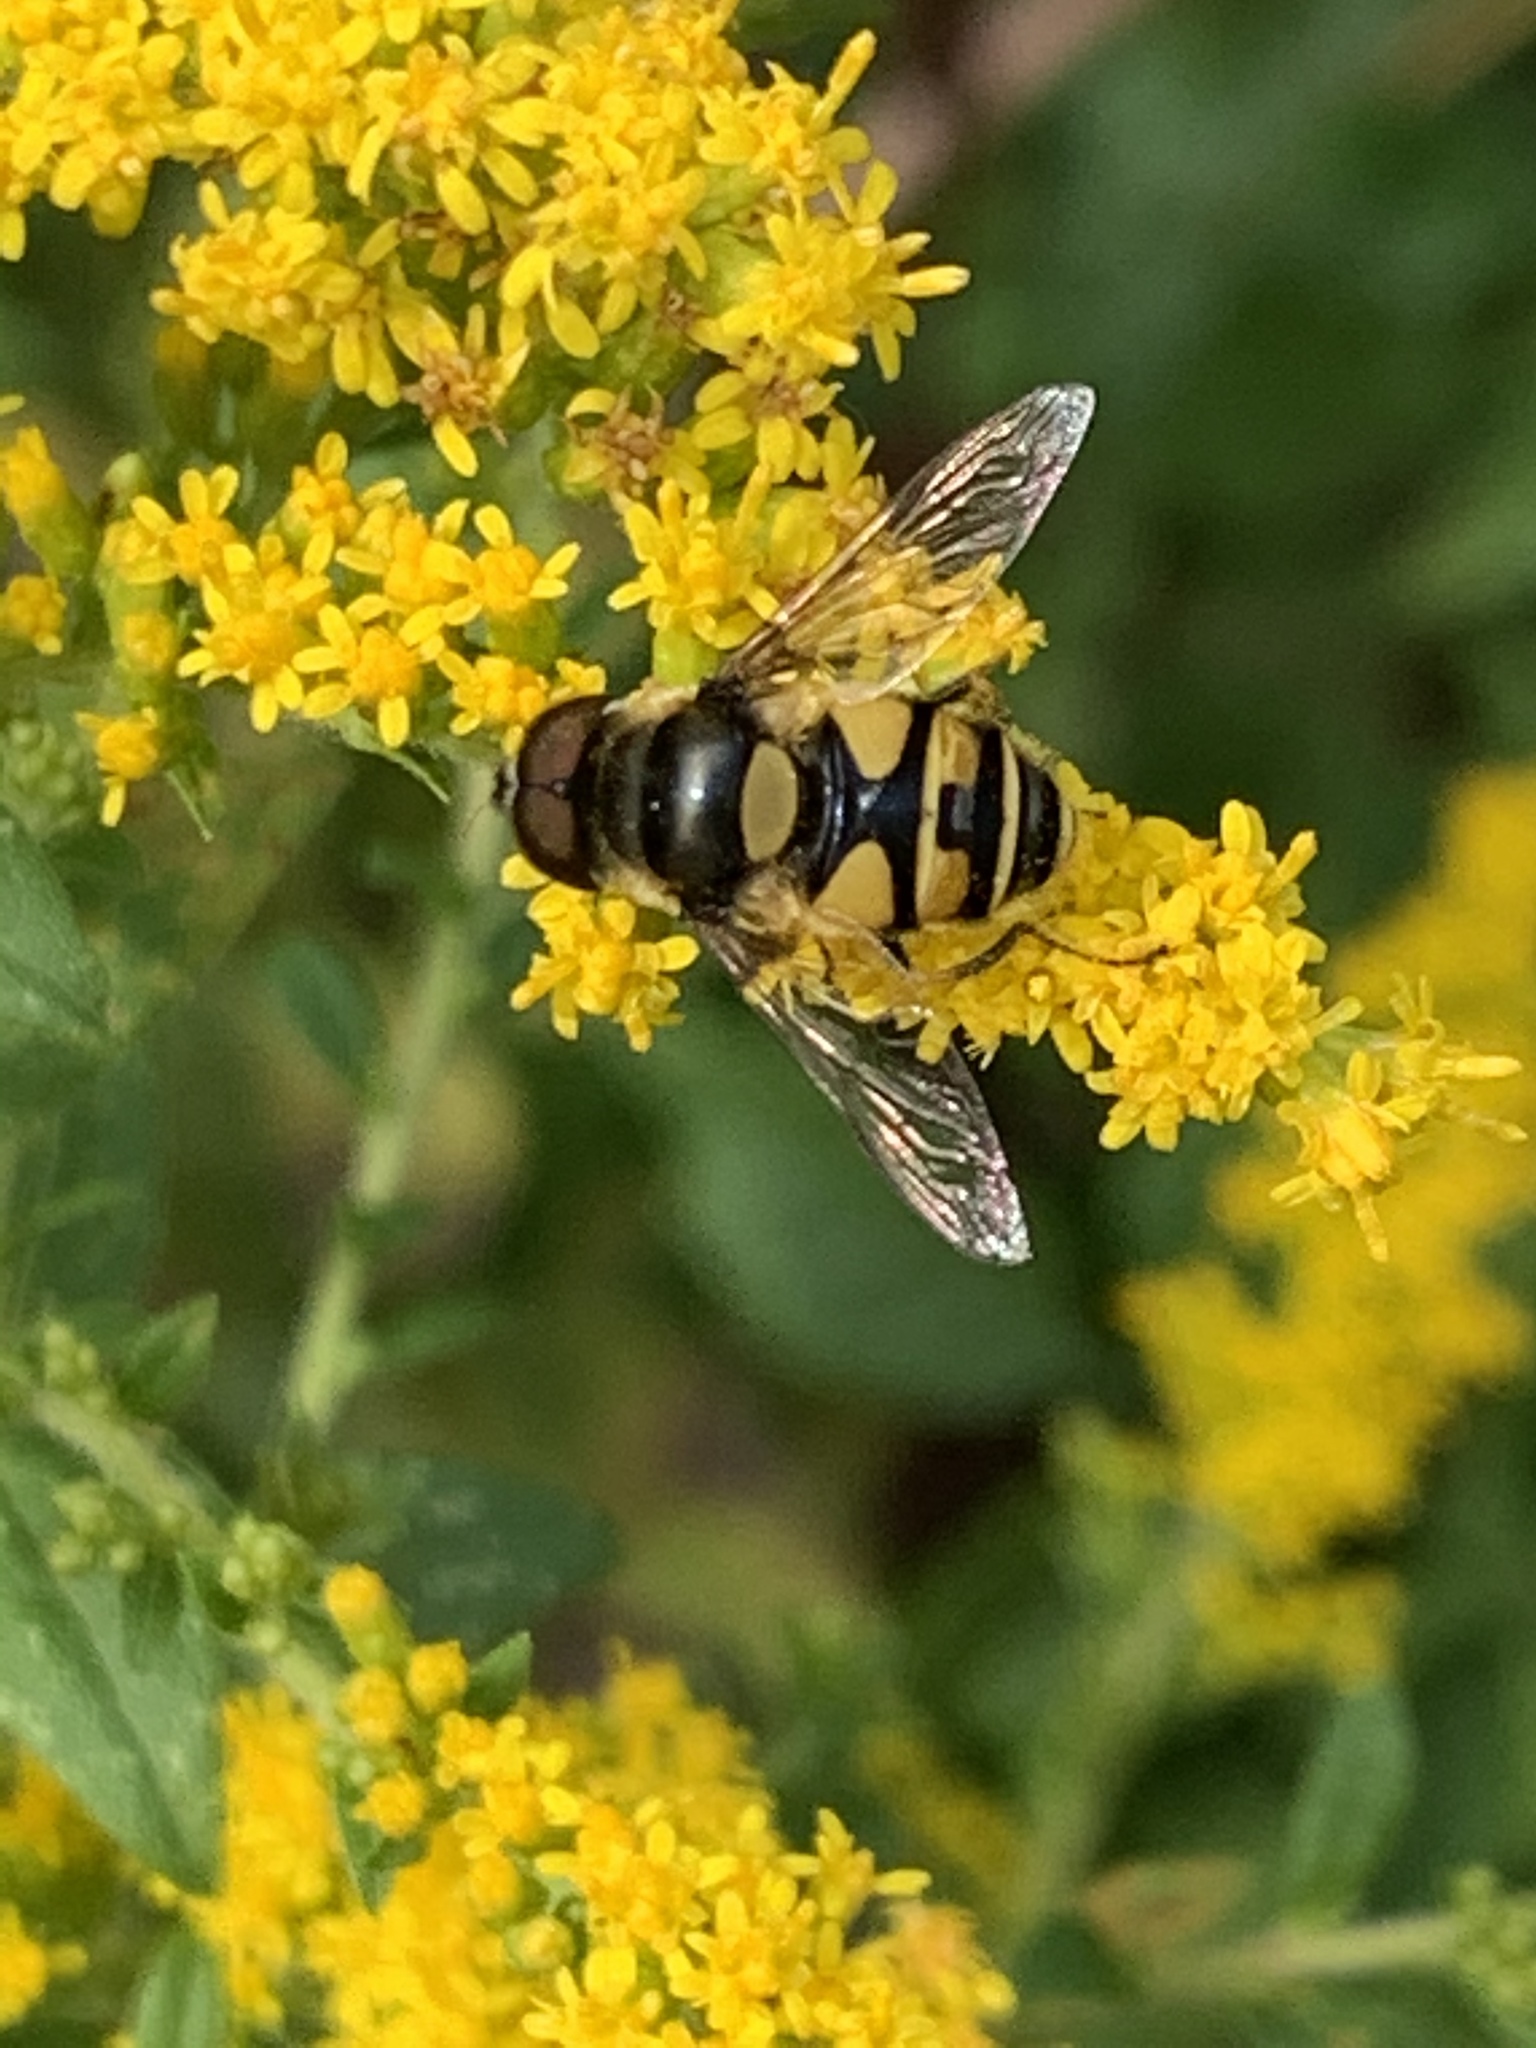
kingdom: Animalia
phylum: Arthropoda
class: Insecta
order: Diptera
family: Syrphidae
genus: Eristalis
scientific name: Eristalis transversa
